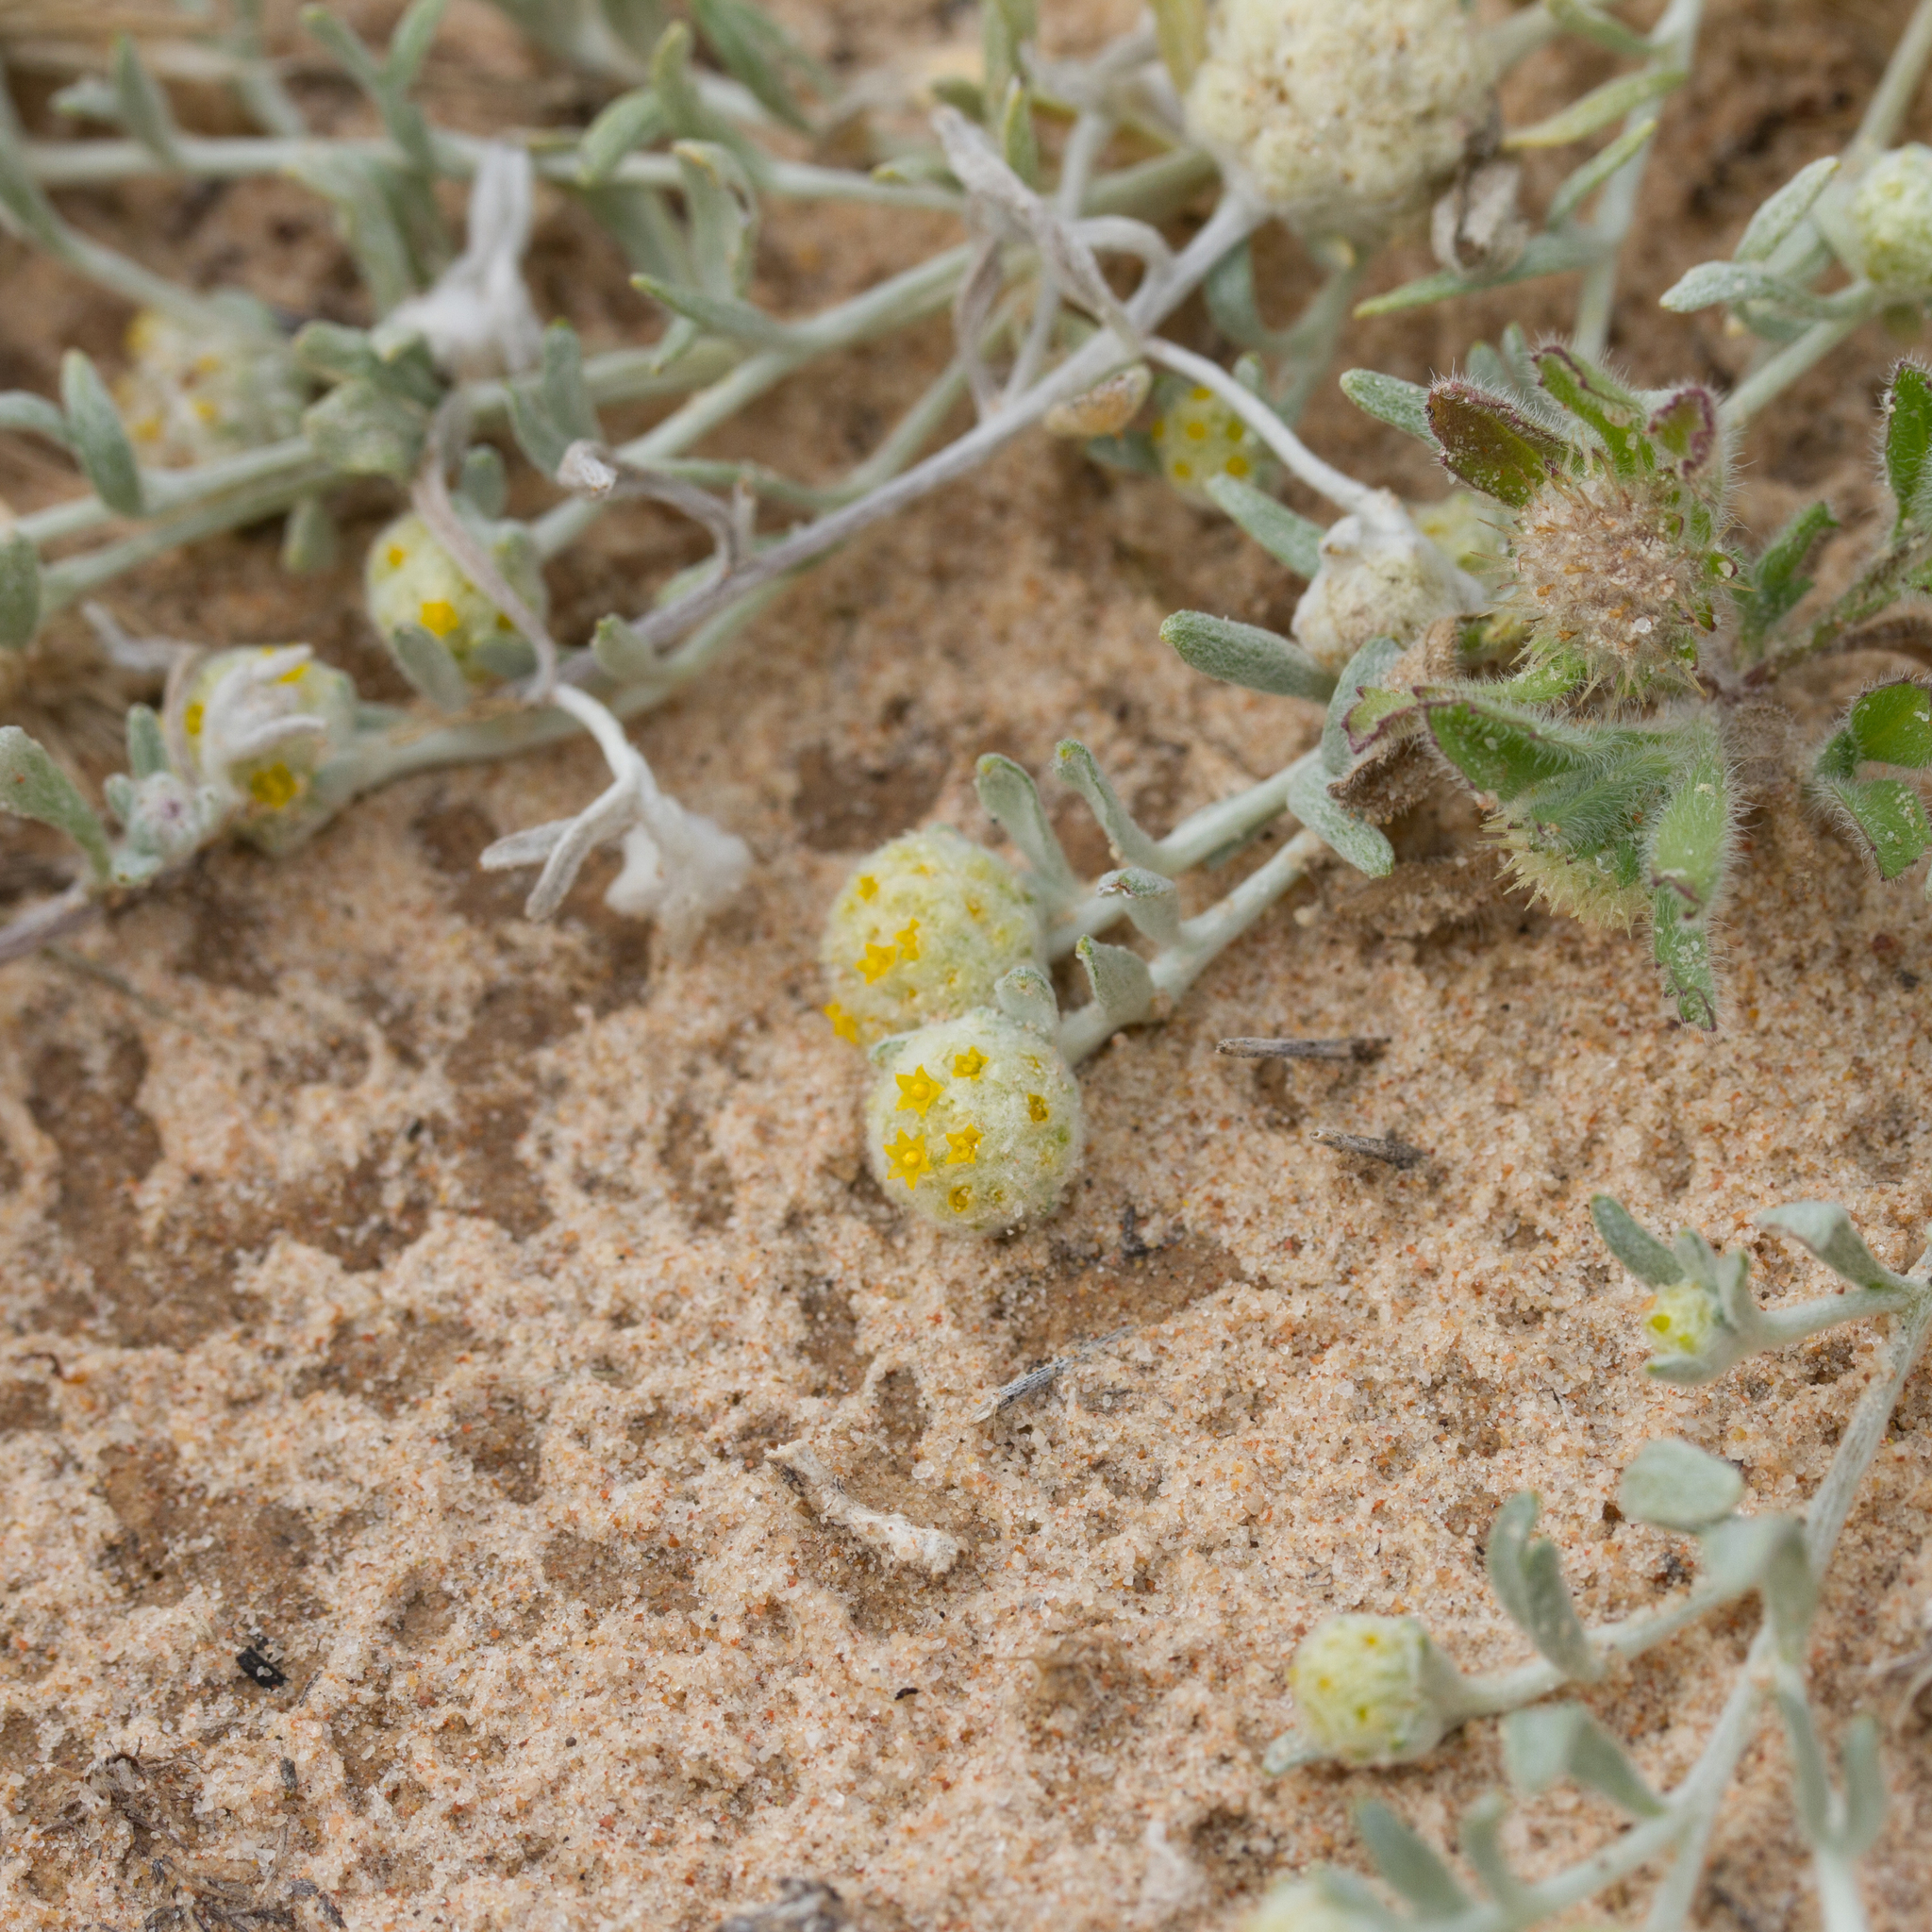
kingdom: Plantae
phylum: Tracheophyta
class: Magnoliopsida
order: Asterales
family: Asteraceae
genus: Gnephosis
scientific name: Gnephosis eriocarpa
